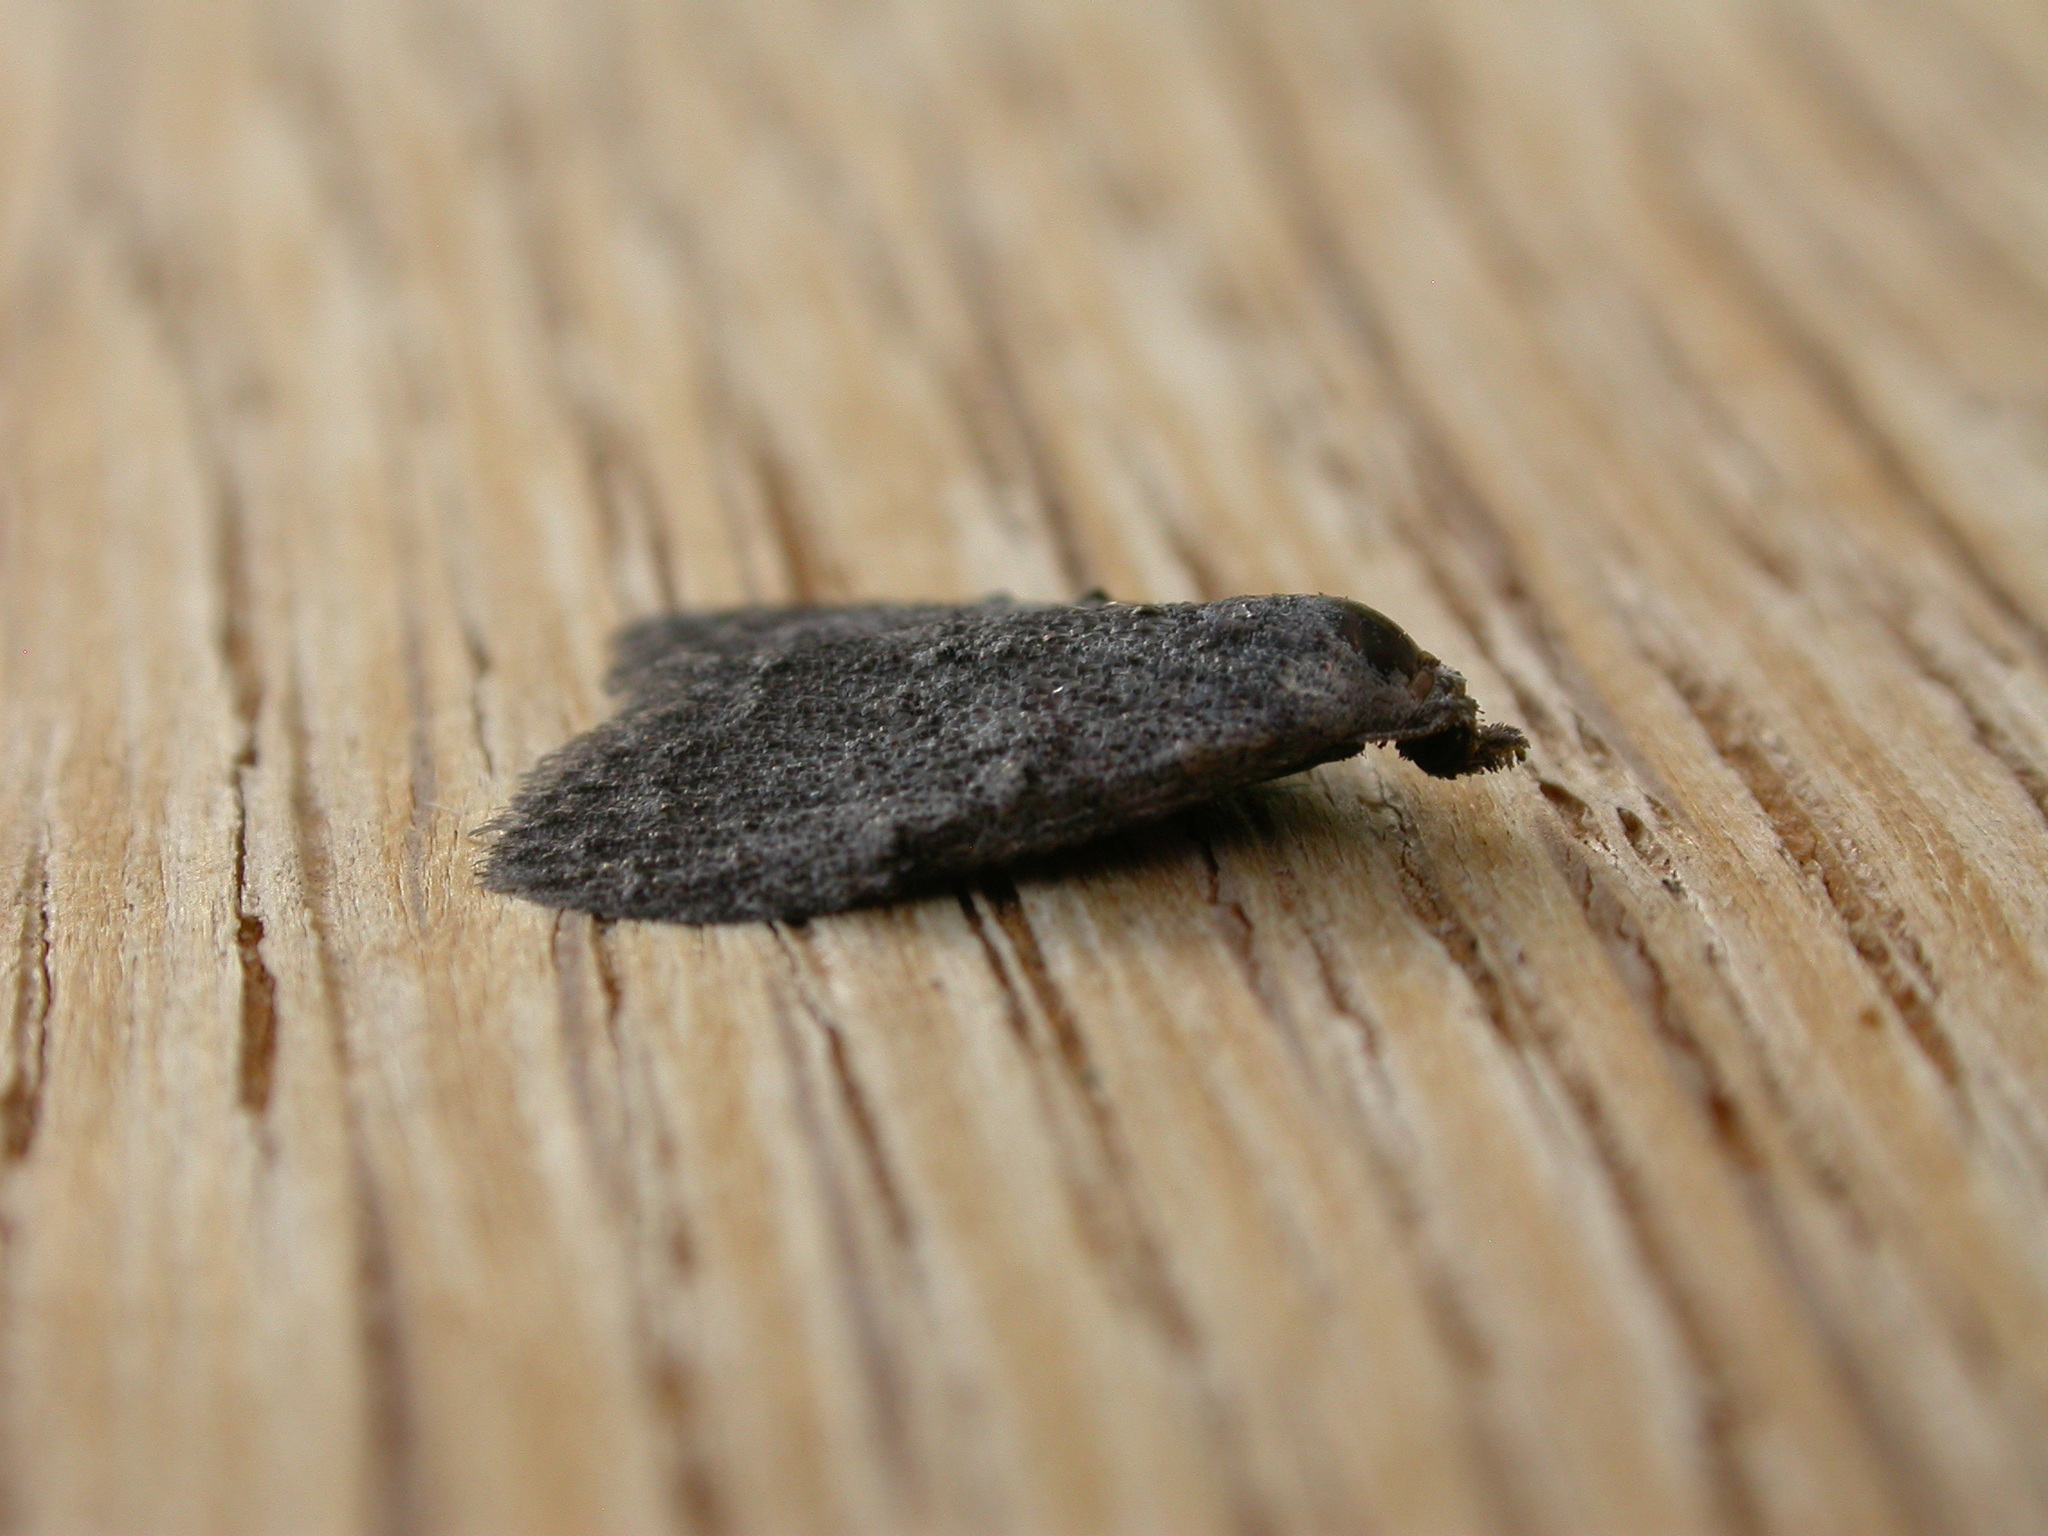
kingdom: Animalia
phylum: Arthropoda
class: Insecta
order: Lepidoptera
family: Nolidae
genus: Nola
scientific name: Nola pleurosema
